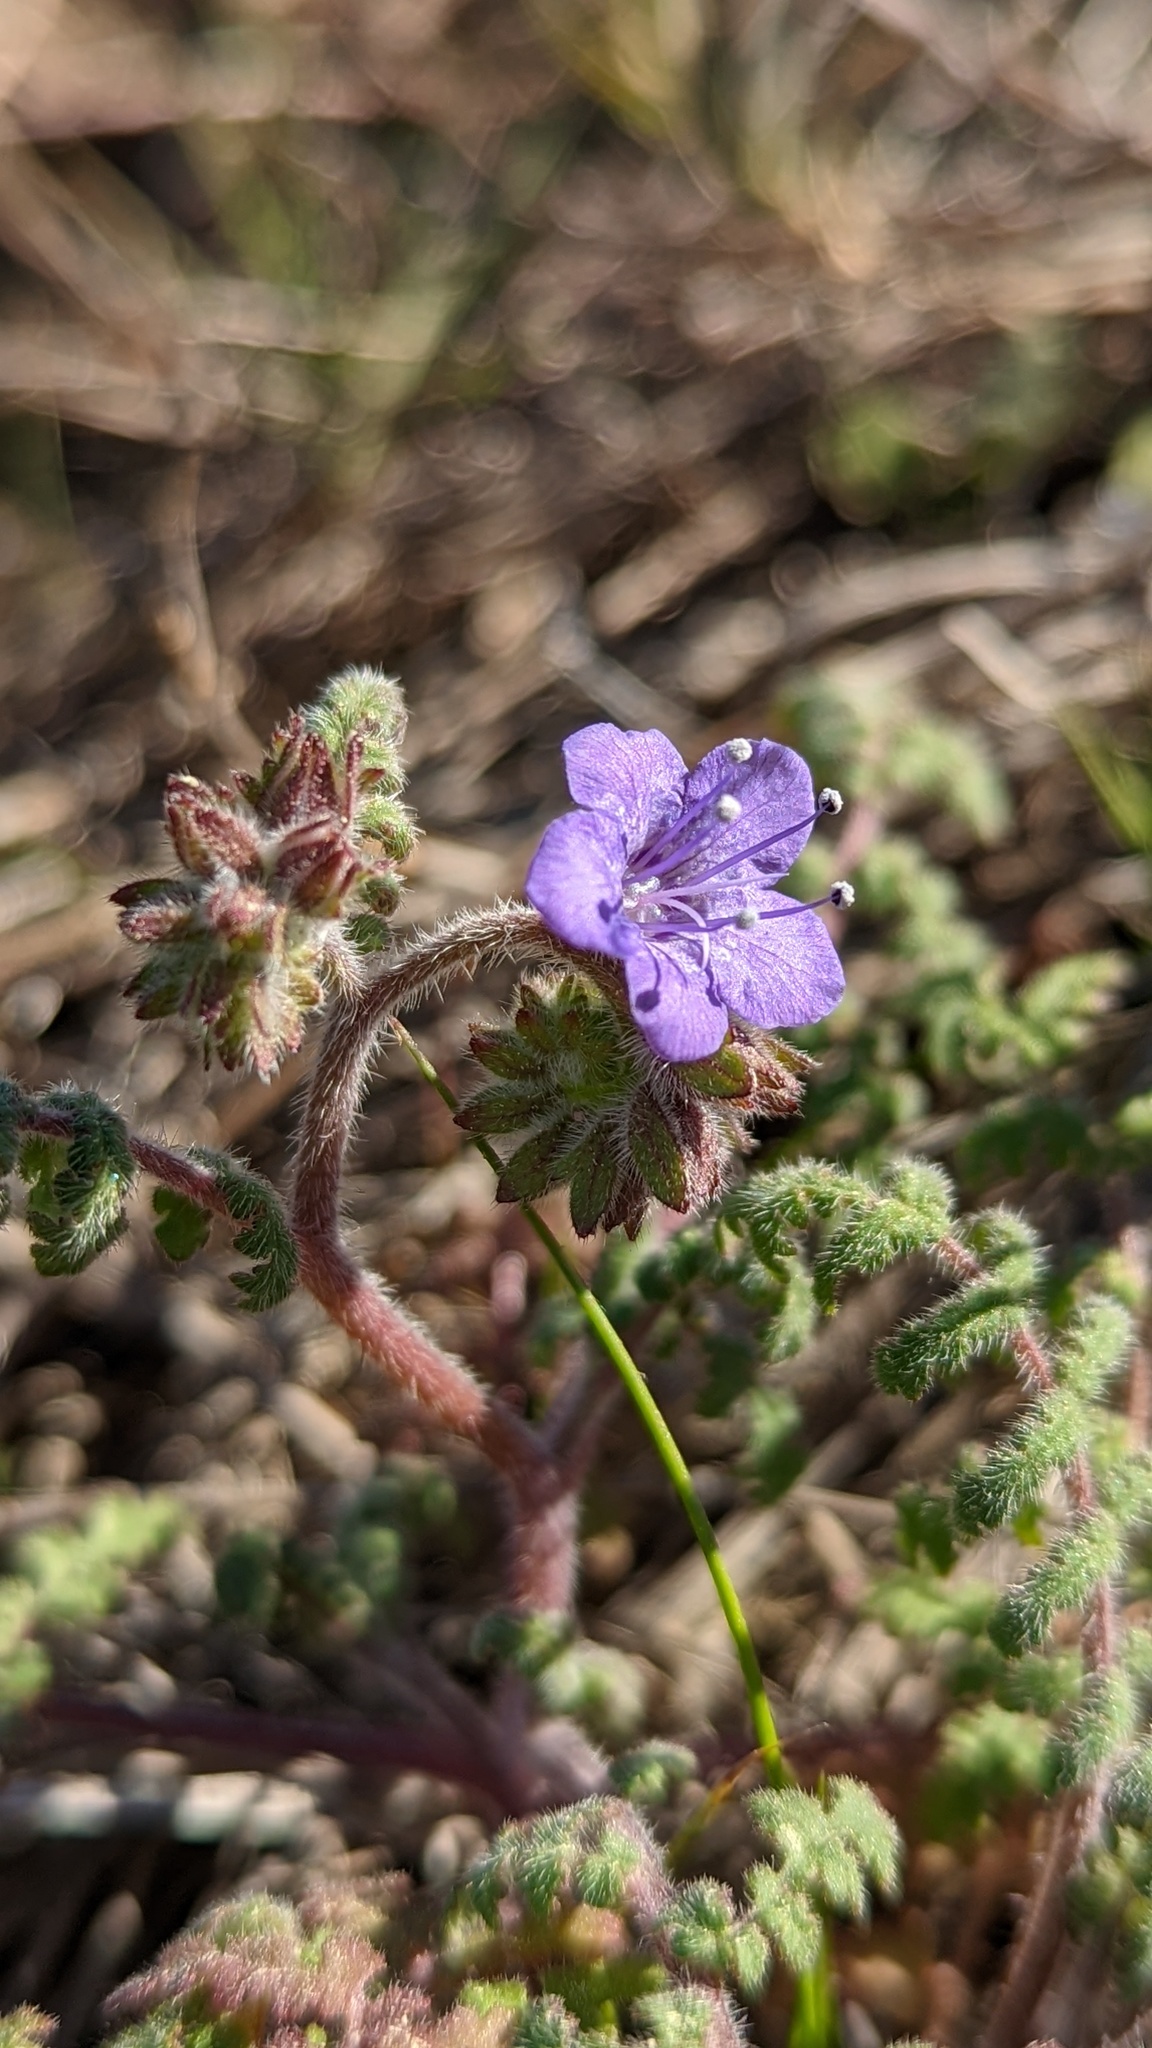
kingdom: Plantae
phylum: Tracheophyta
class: Magnoliopsida
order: Boraginales
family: Hydrophyllaceae
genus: Phacelia
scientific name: Phacelia distans
